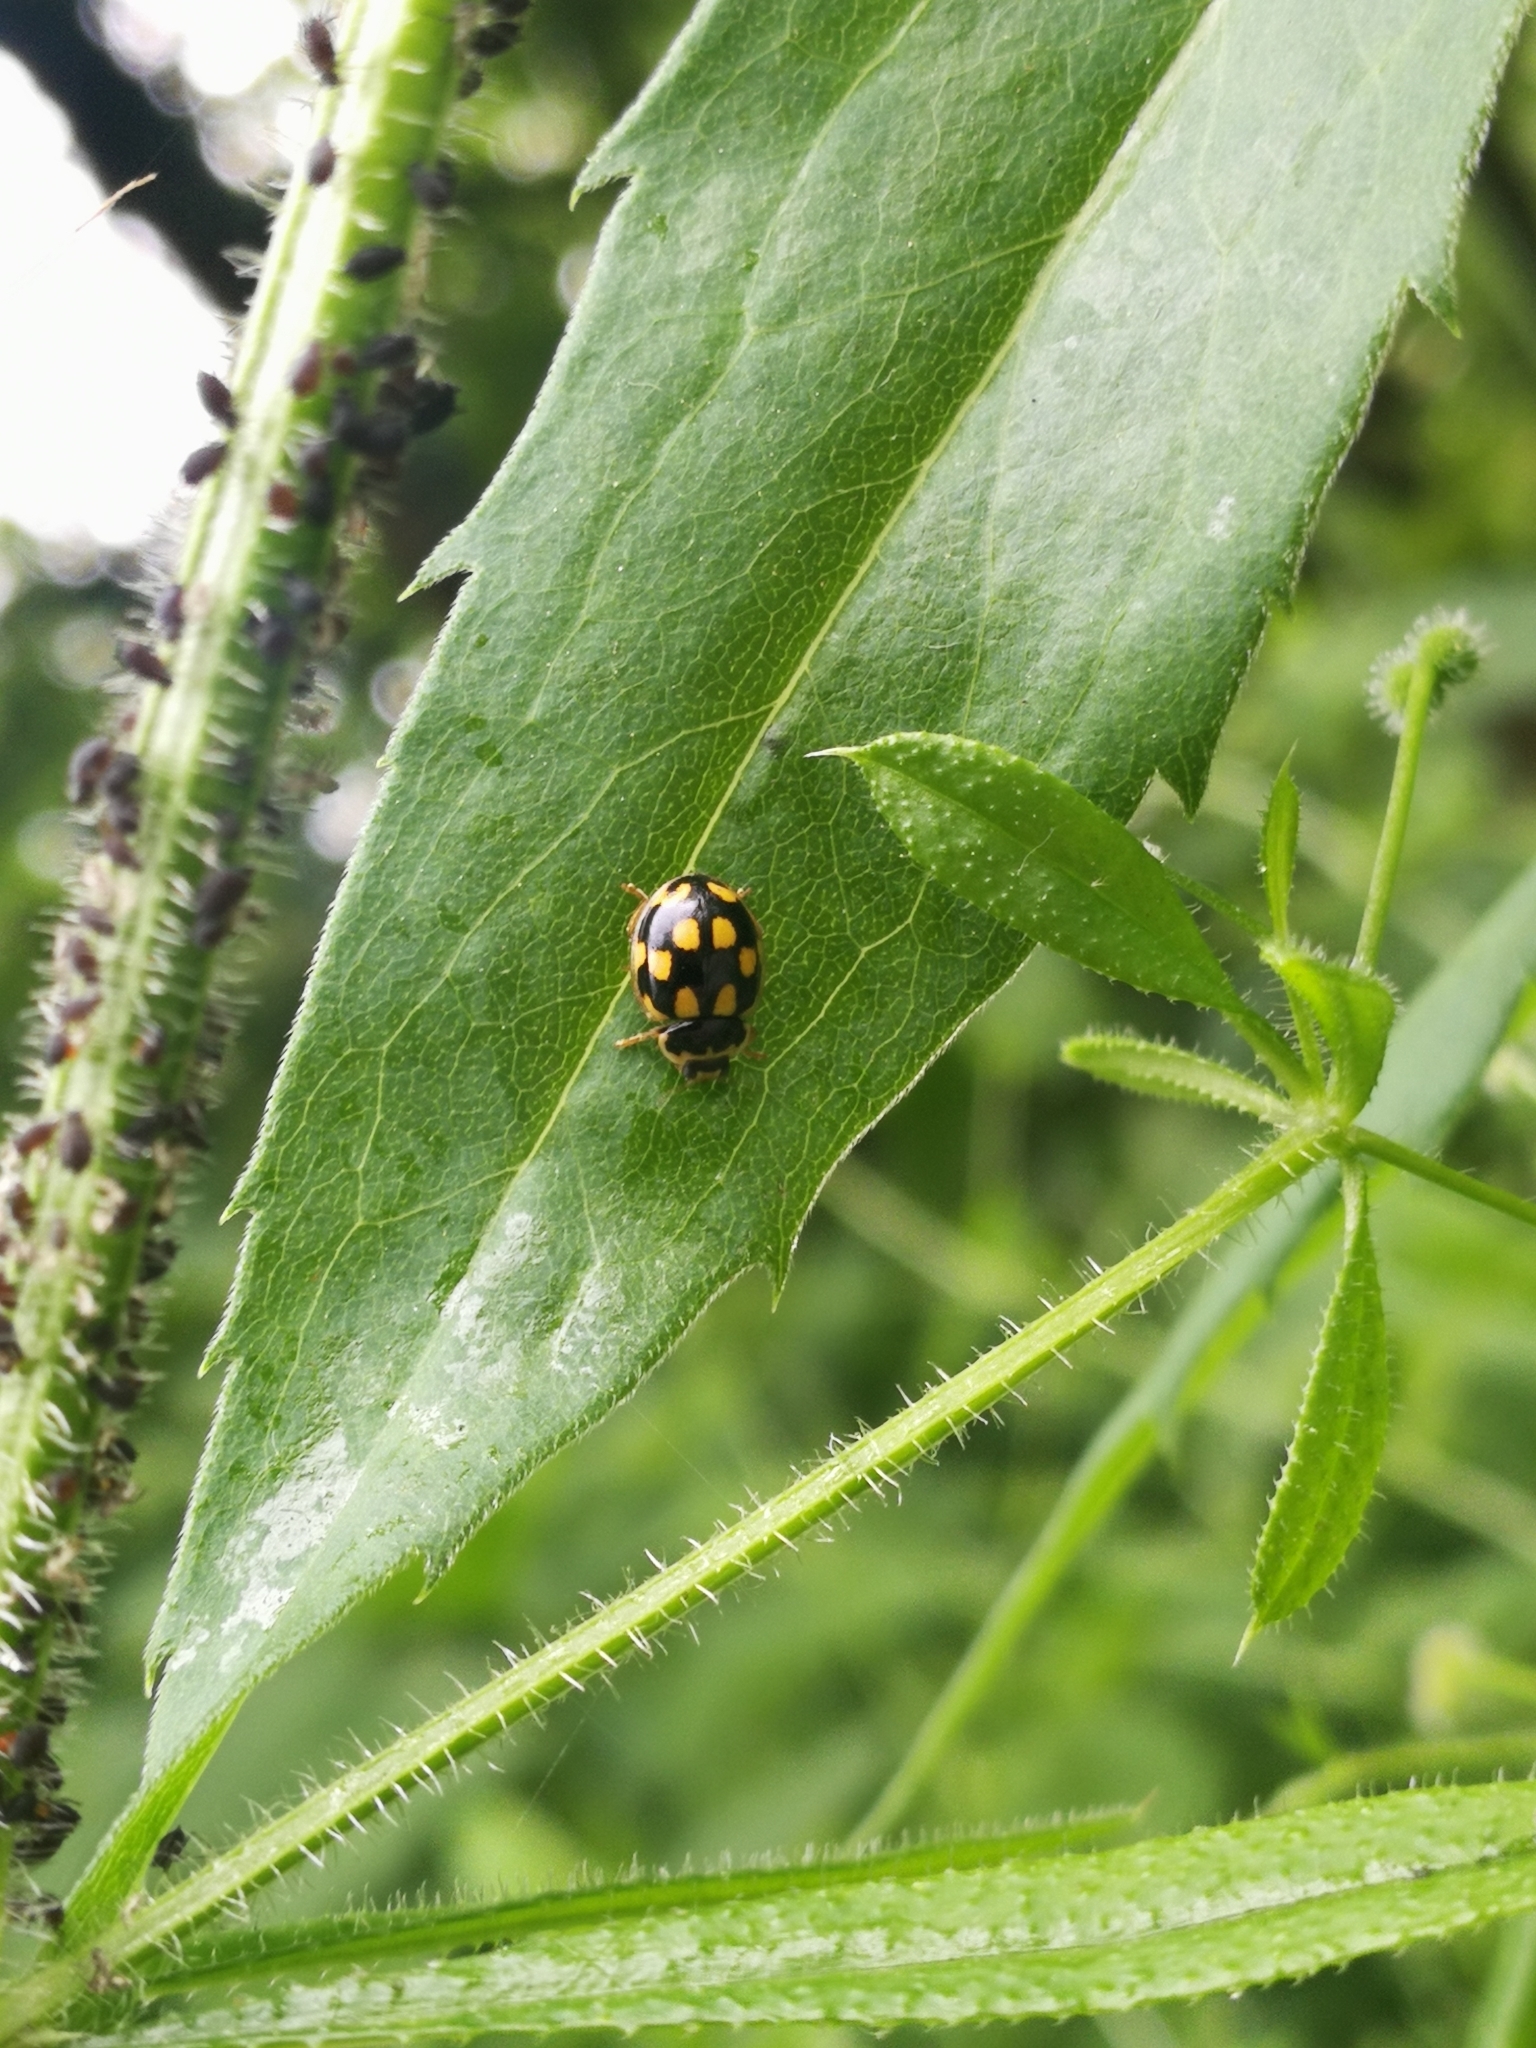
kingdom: Animalia
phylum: Arthropoda
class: Insecta
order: Coleoptera
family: Coccinellidae
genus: Propylaea
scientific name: Propylaea quatuordecimpunctata
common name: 14-spotted ladybird beetle
